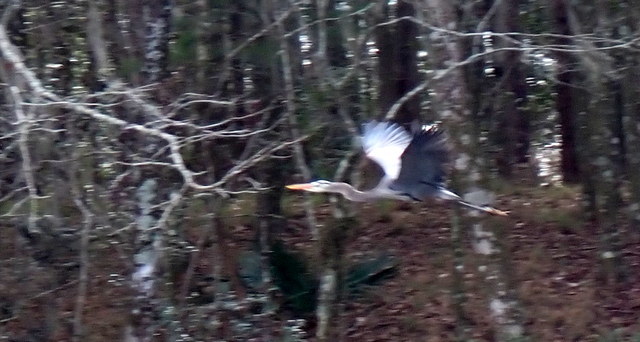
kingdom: Animalia
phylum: Chordata
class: Aves
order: Pelecaniformes
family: Ardeidae
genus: Ardea
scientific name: Ardea herodias
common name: Great blue heron
